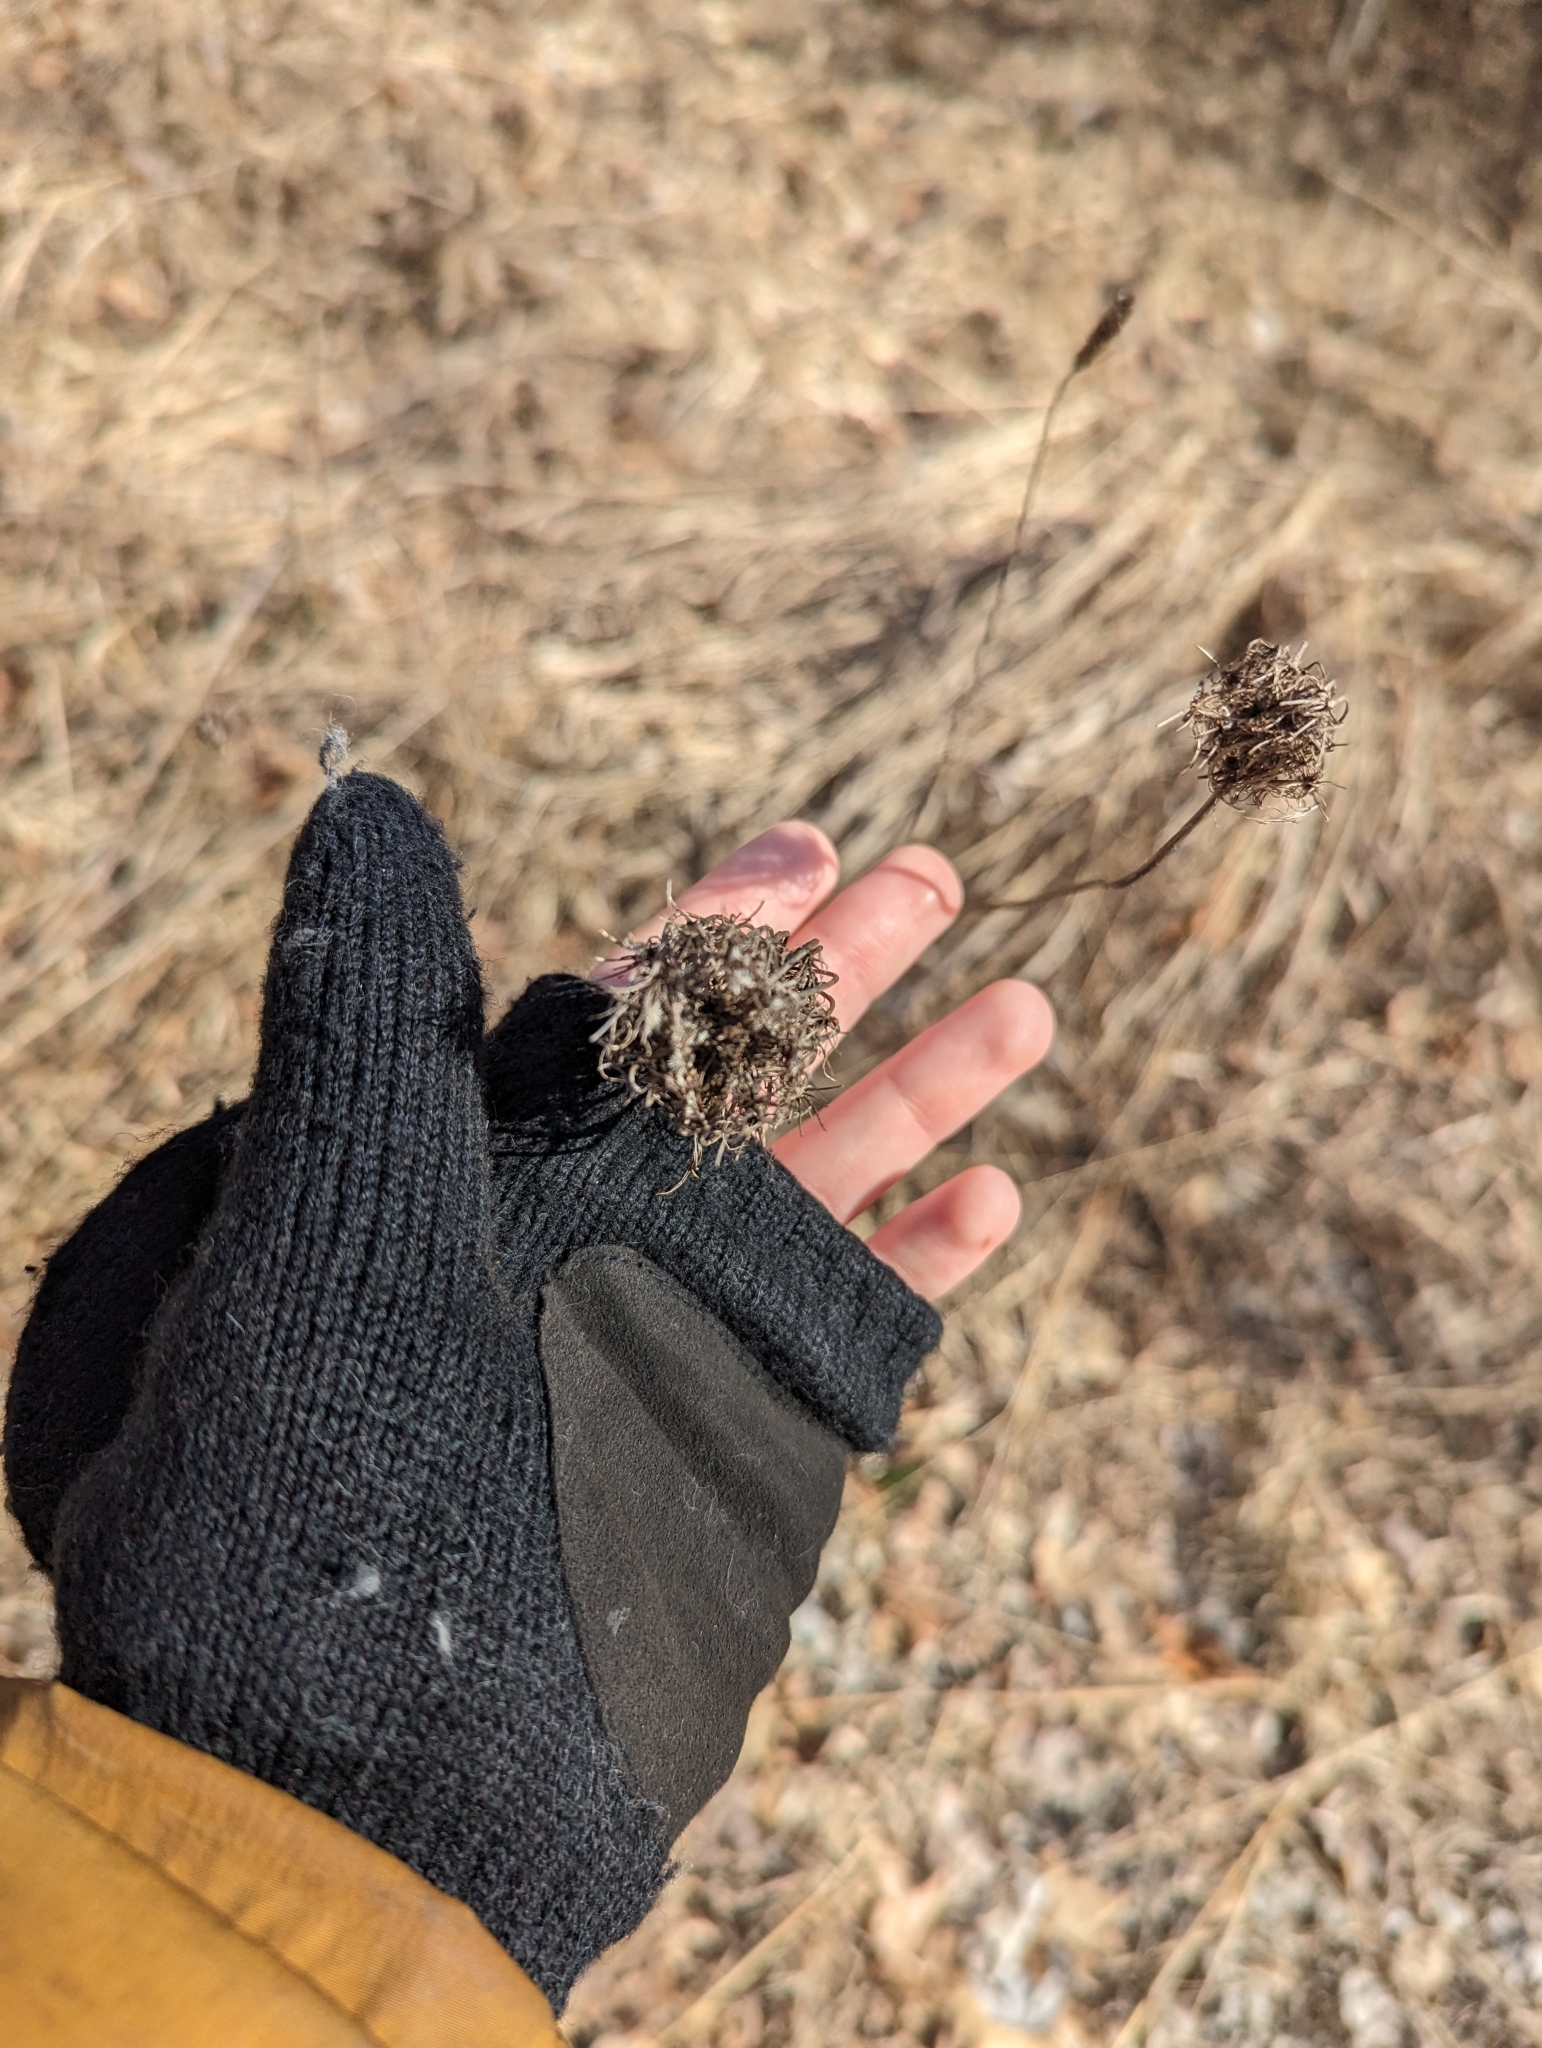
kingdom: Plantae
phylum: Tracheophyta
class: Magnoliopsida
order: Apiales
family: Apiaceae
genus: Daucus
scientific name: Daucus carota
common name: Wild carrot
